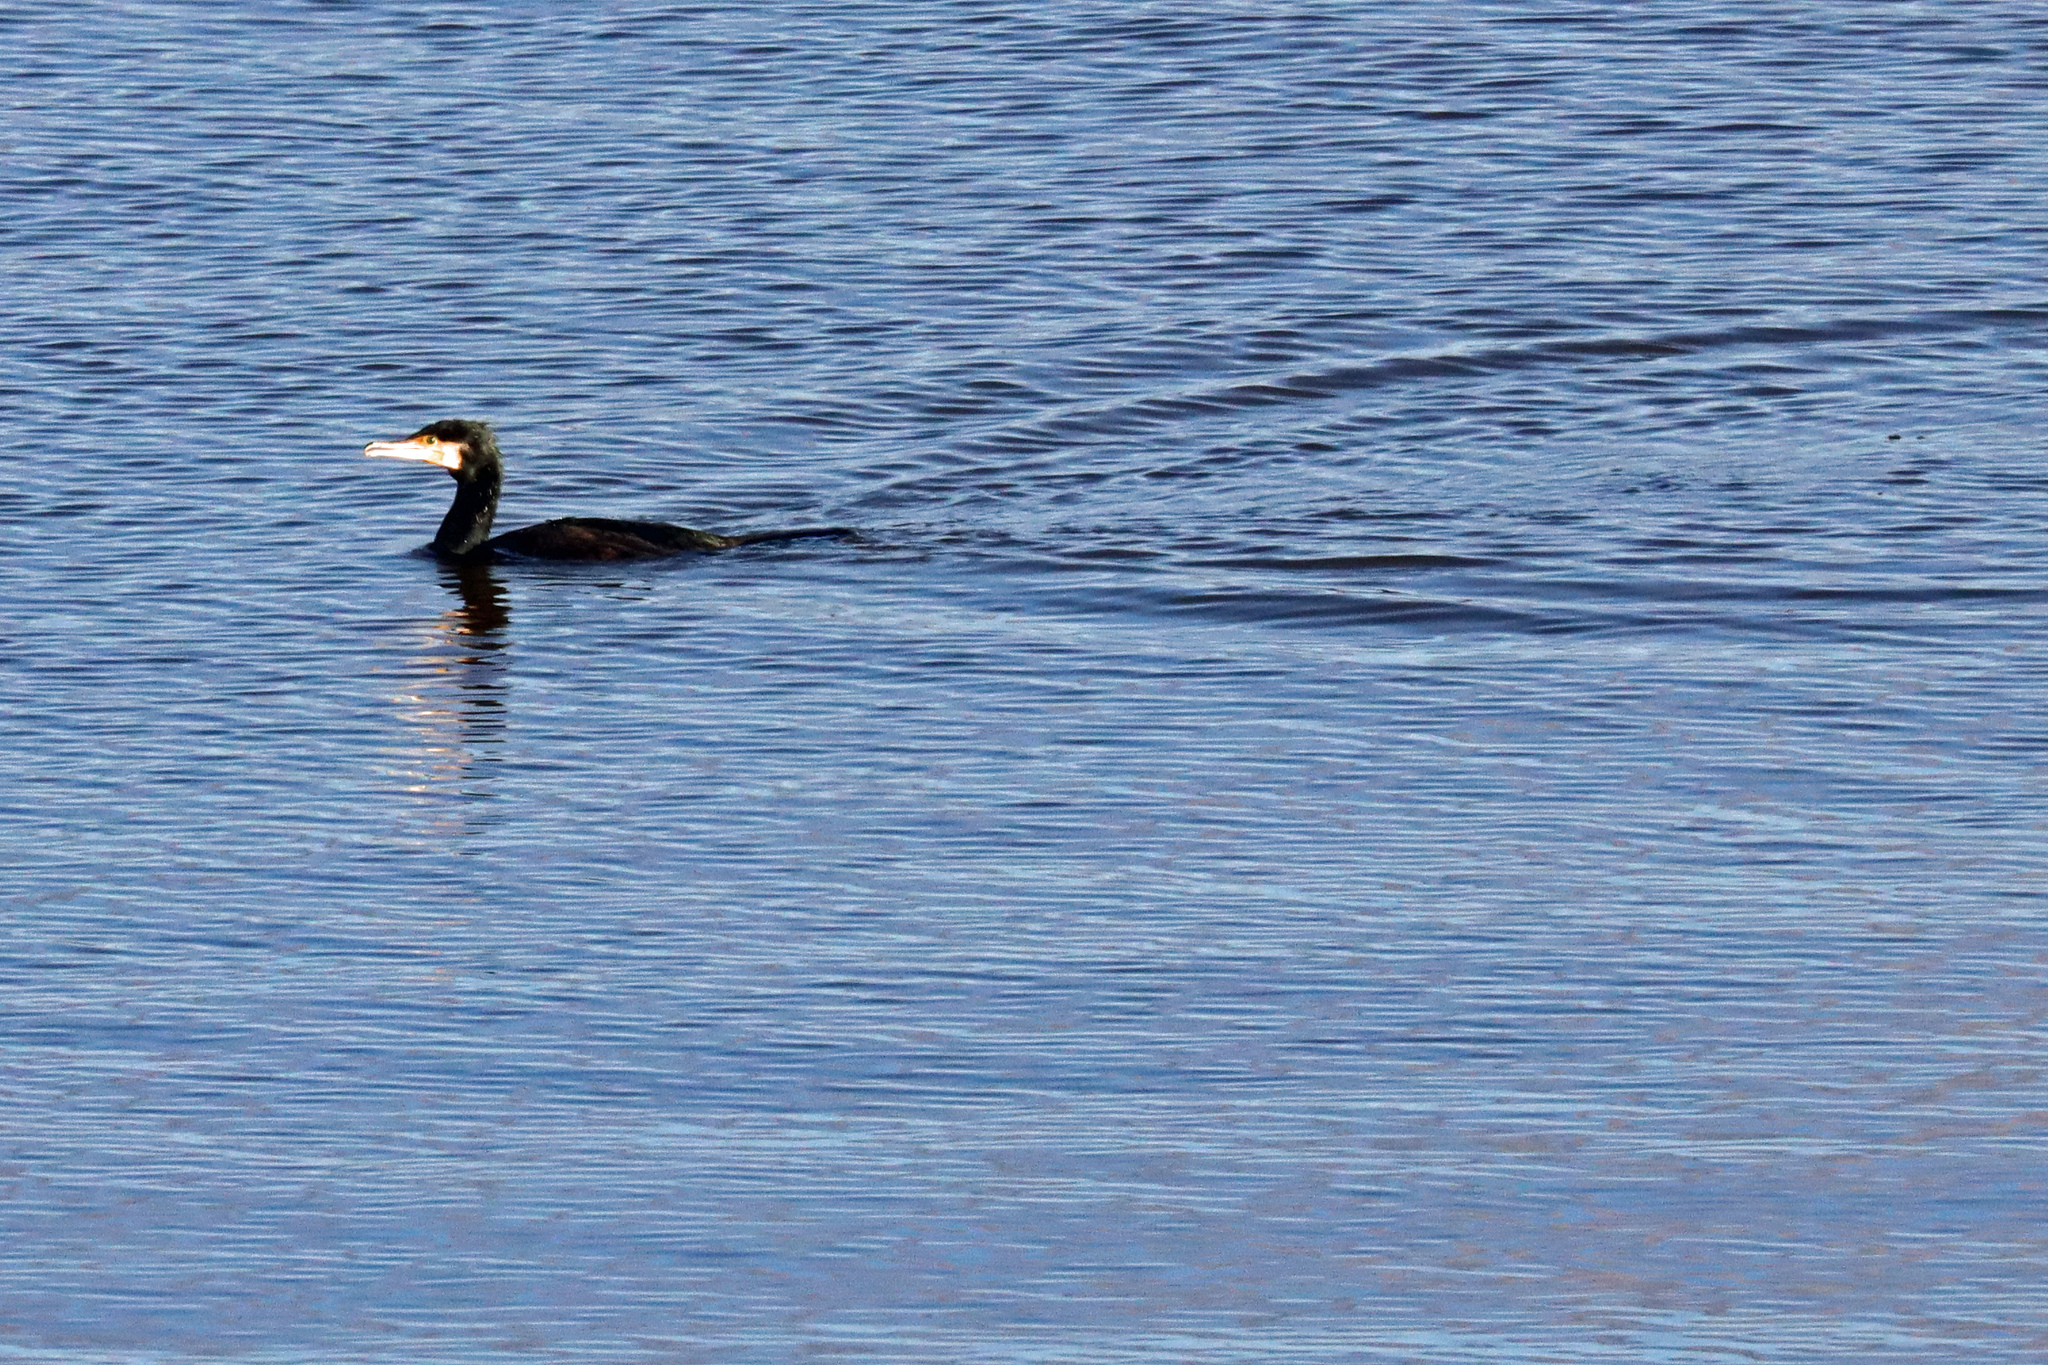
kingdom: Animalia
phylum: Chordata
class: Aves
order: Suliformes
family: Phalacrocoracidae
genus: Phalacrocorax
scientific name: Phalacrocorax carbo
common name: Great cormorant
